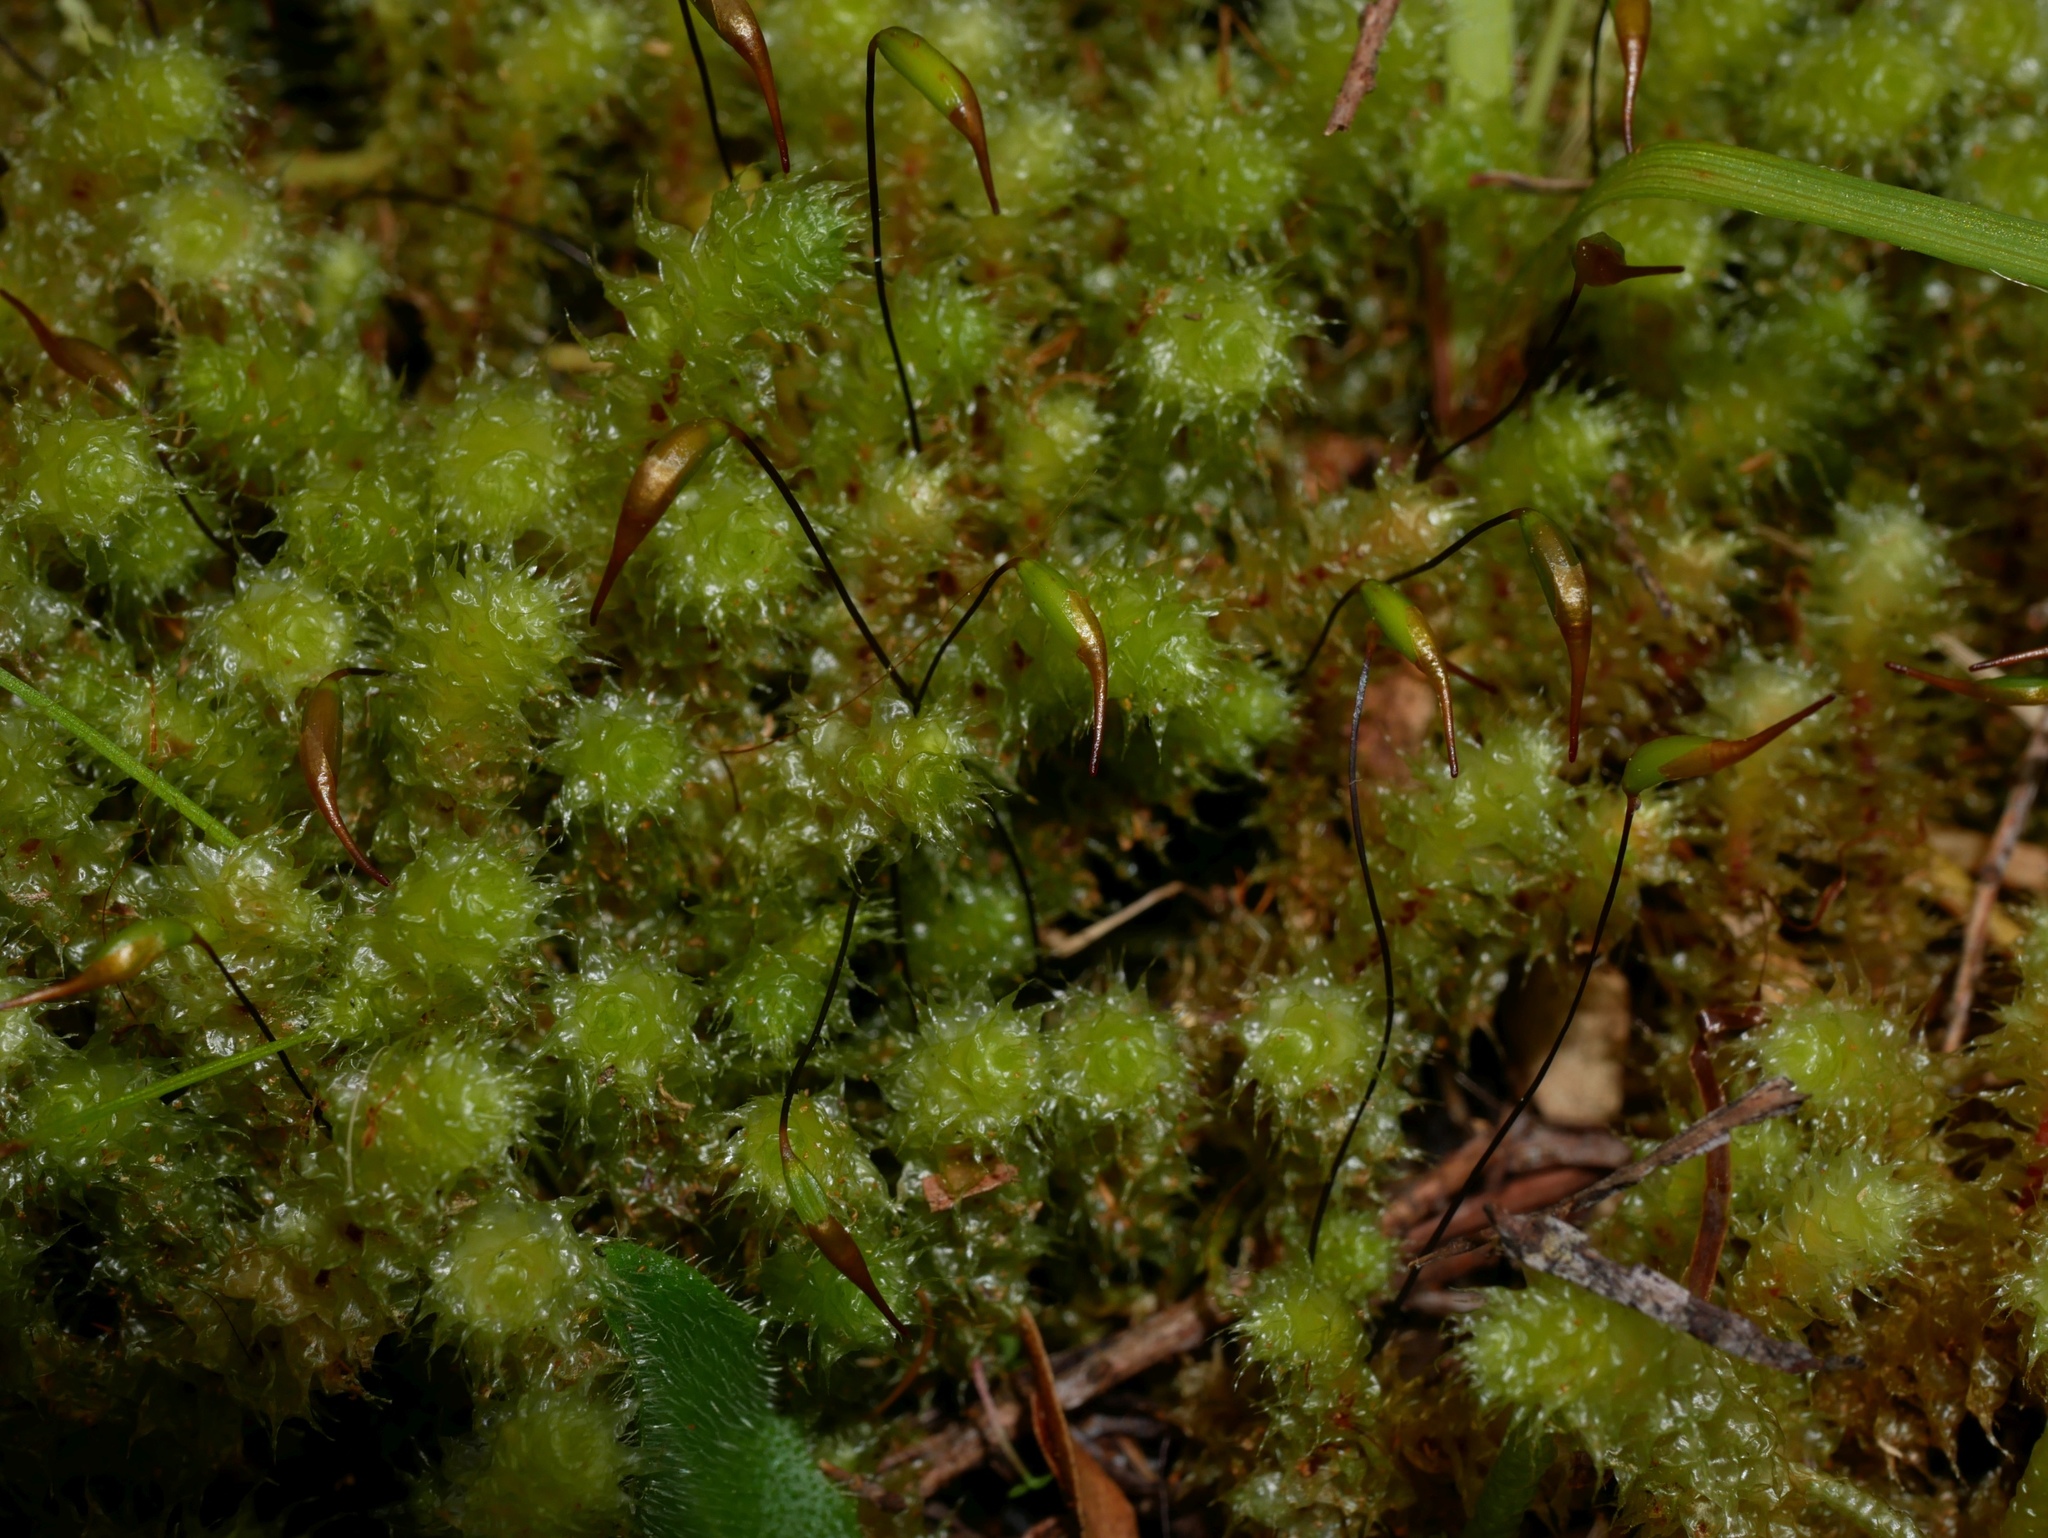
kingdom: Plantae
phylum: Bryophyta
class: Bryopsida
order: Ptychomniales
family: Ptychomniaceae
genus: Ptychomnion
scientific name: Ptychomnion aciculare
